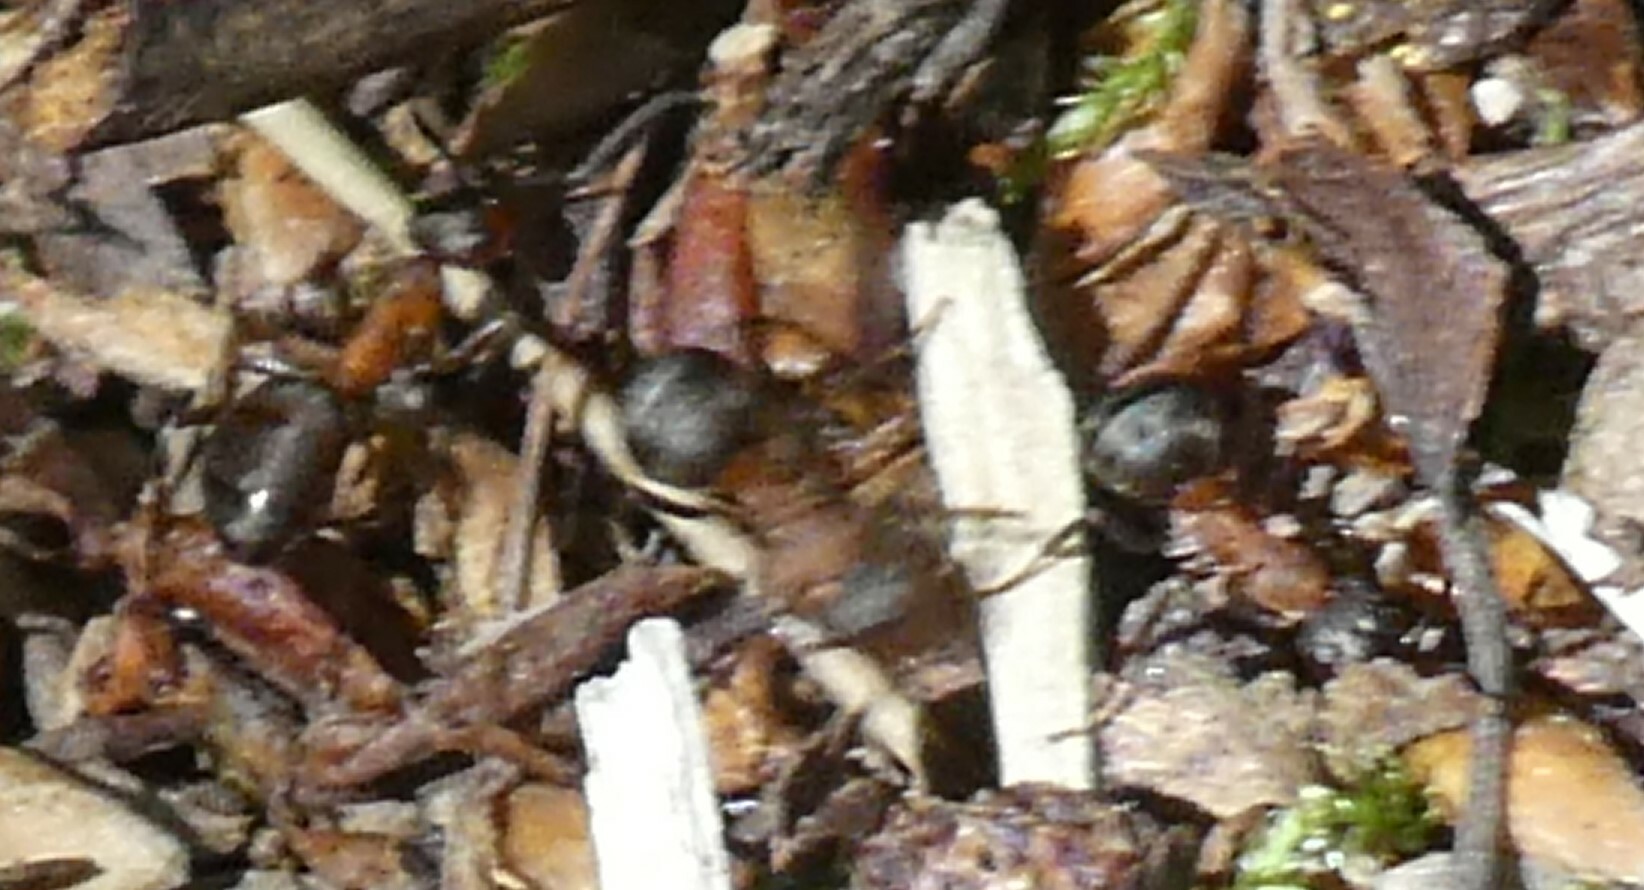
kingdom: Animalia
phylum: Arthropoda
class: Insecta
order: Hymenoptera
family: Formicidae
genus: Formica
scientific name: Formica
